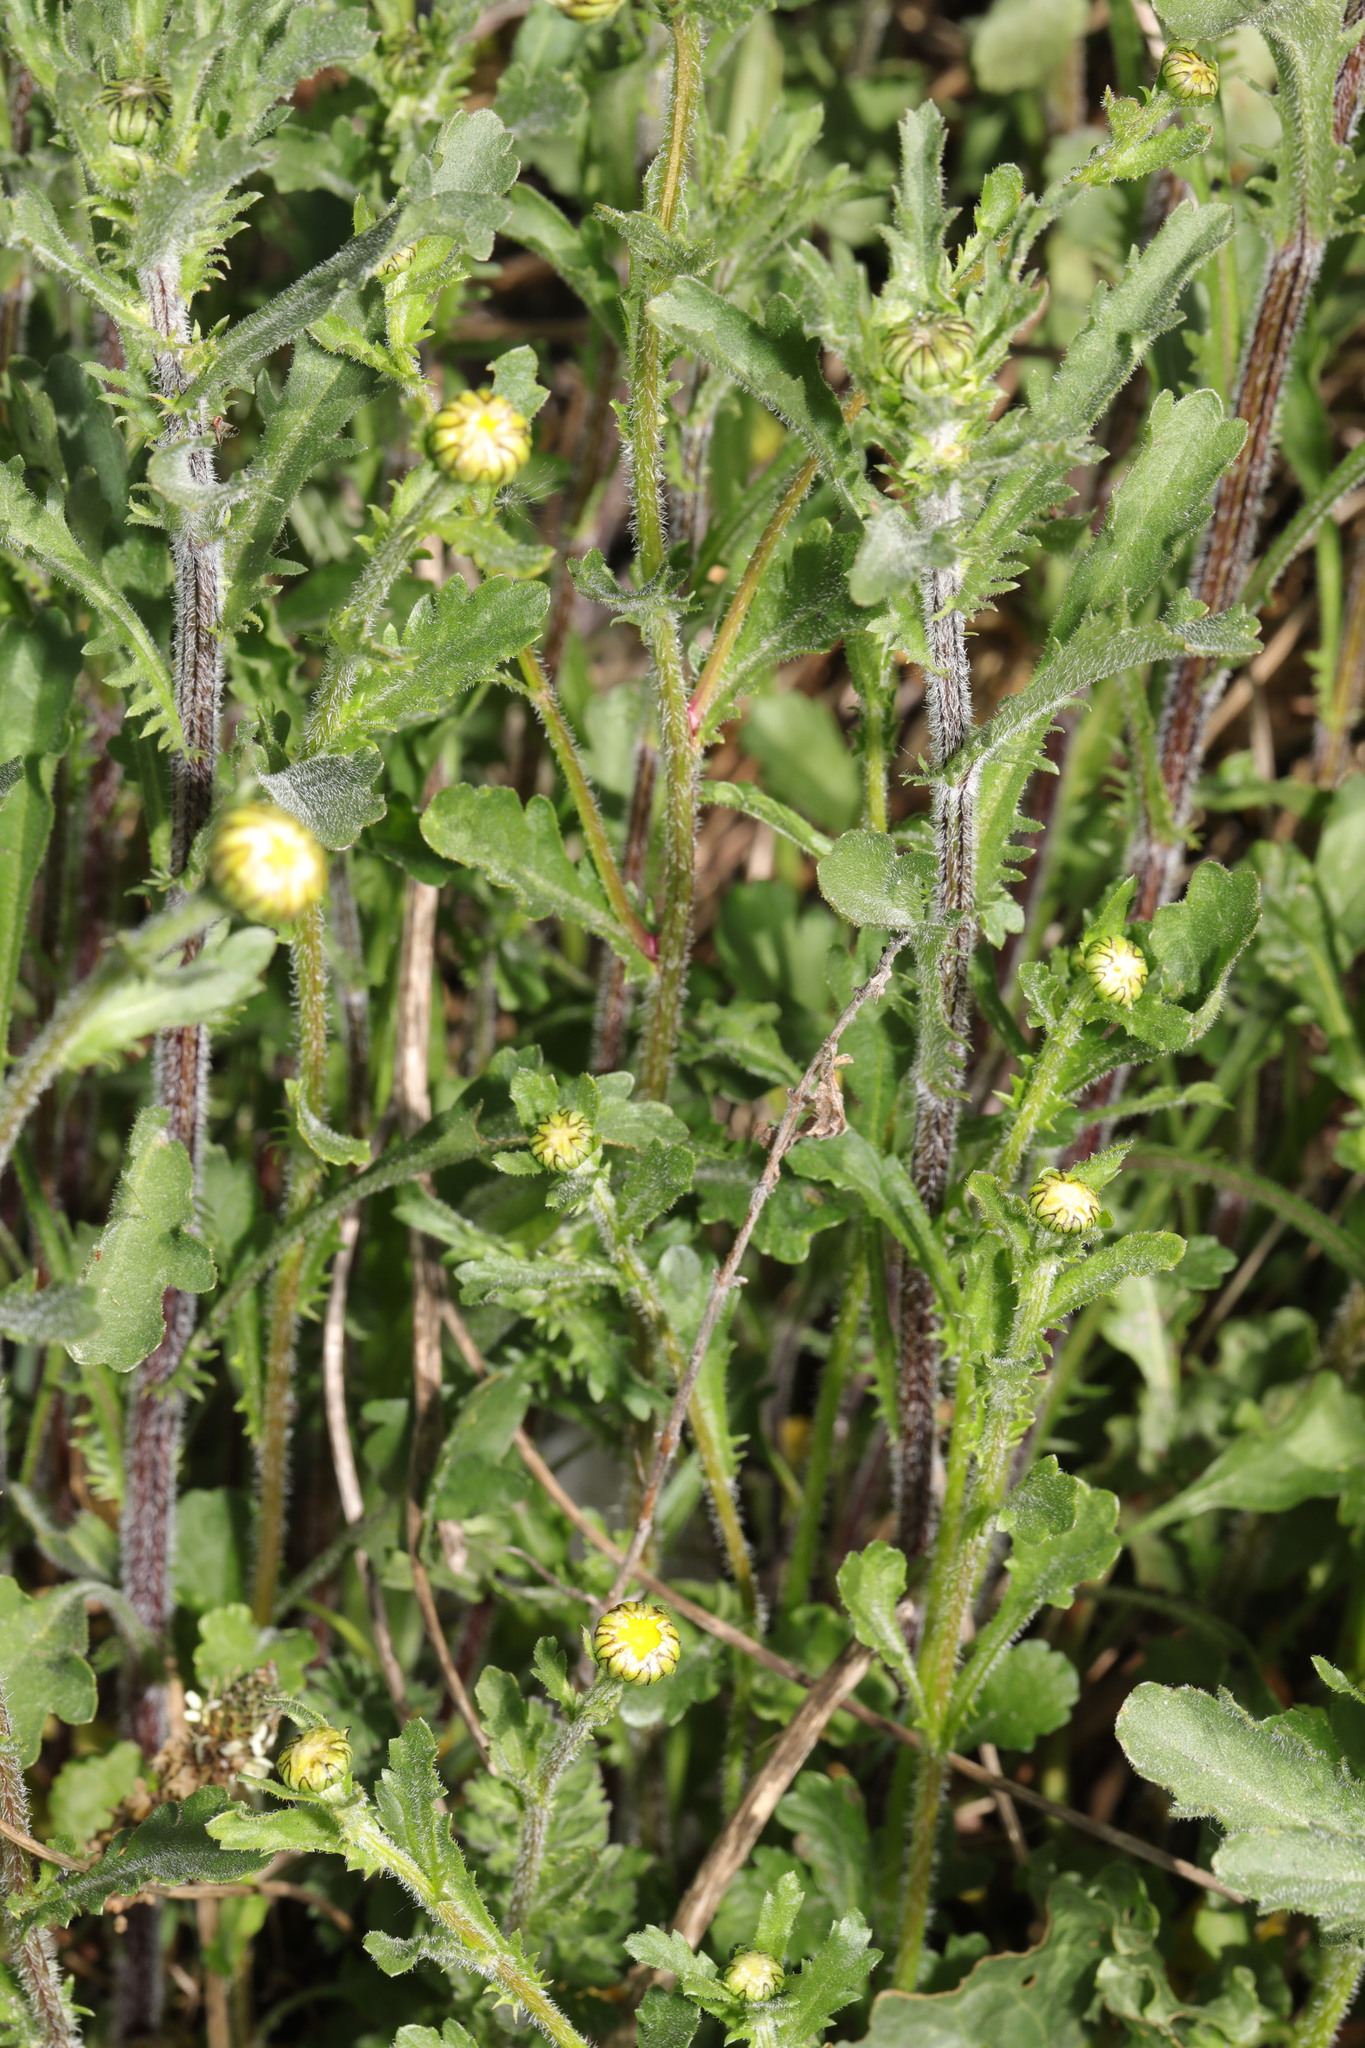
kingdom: Plantae
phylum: Tracheophyta
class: Magnoliopsida
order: Asterales
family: Asteraceae
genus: Leucanthemum
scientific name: Leucanthemum vulgare
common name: Oxeye daisy
